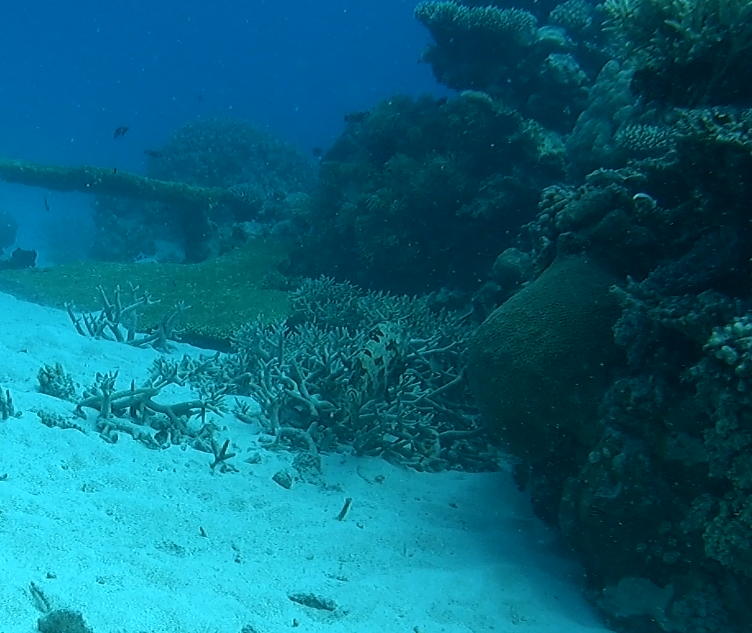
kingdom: Animalia
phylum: Chordata
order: Perciformes
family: Serranidae
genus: Epinephelus
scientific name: Epinephelus fuscoguttatus
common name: Brown-marbled grouper
